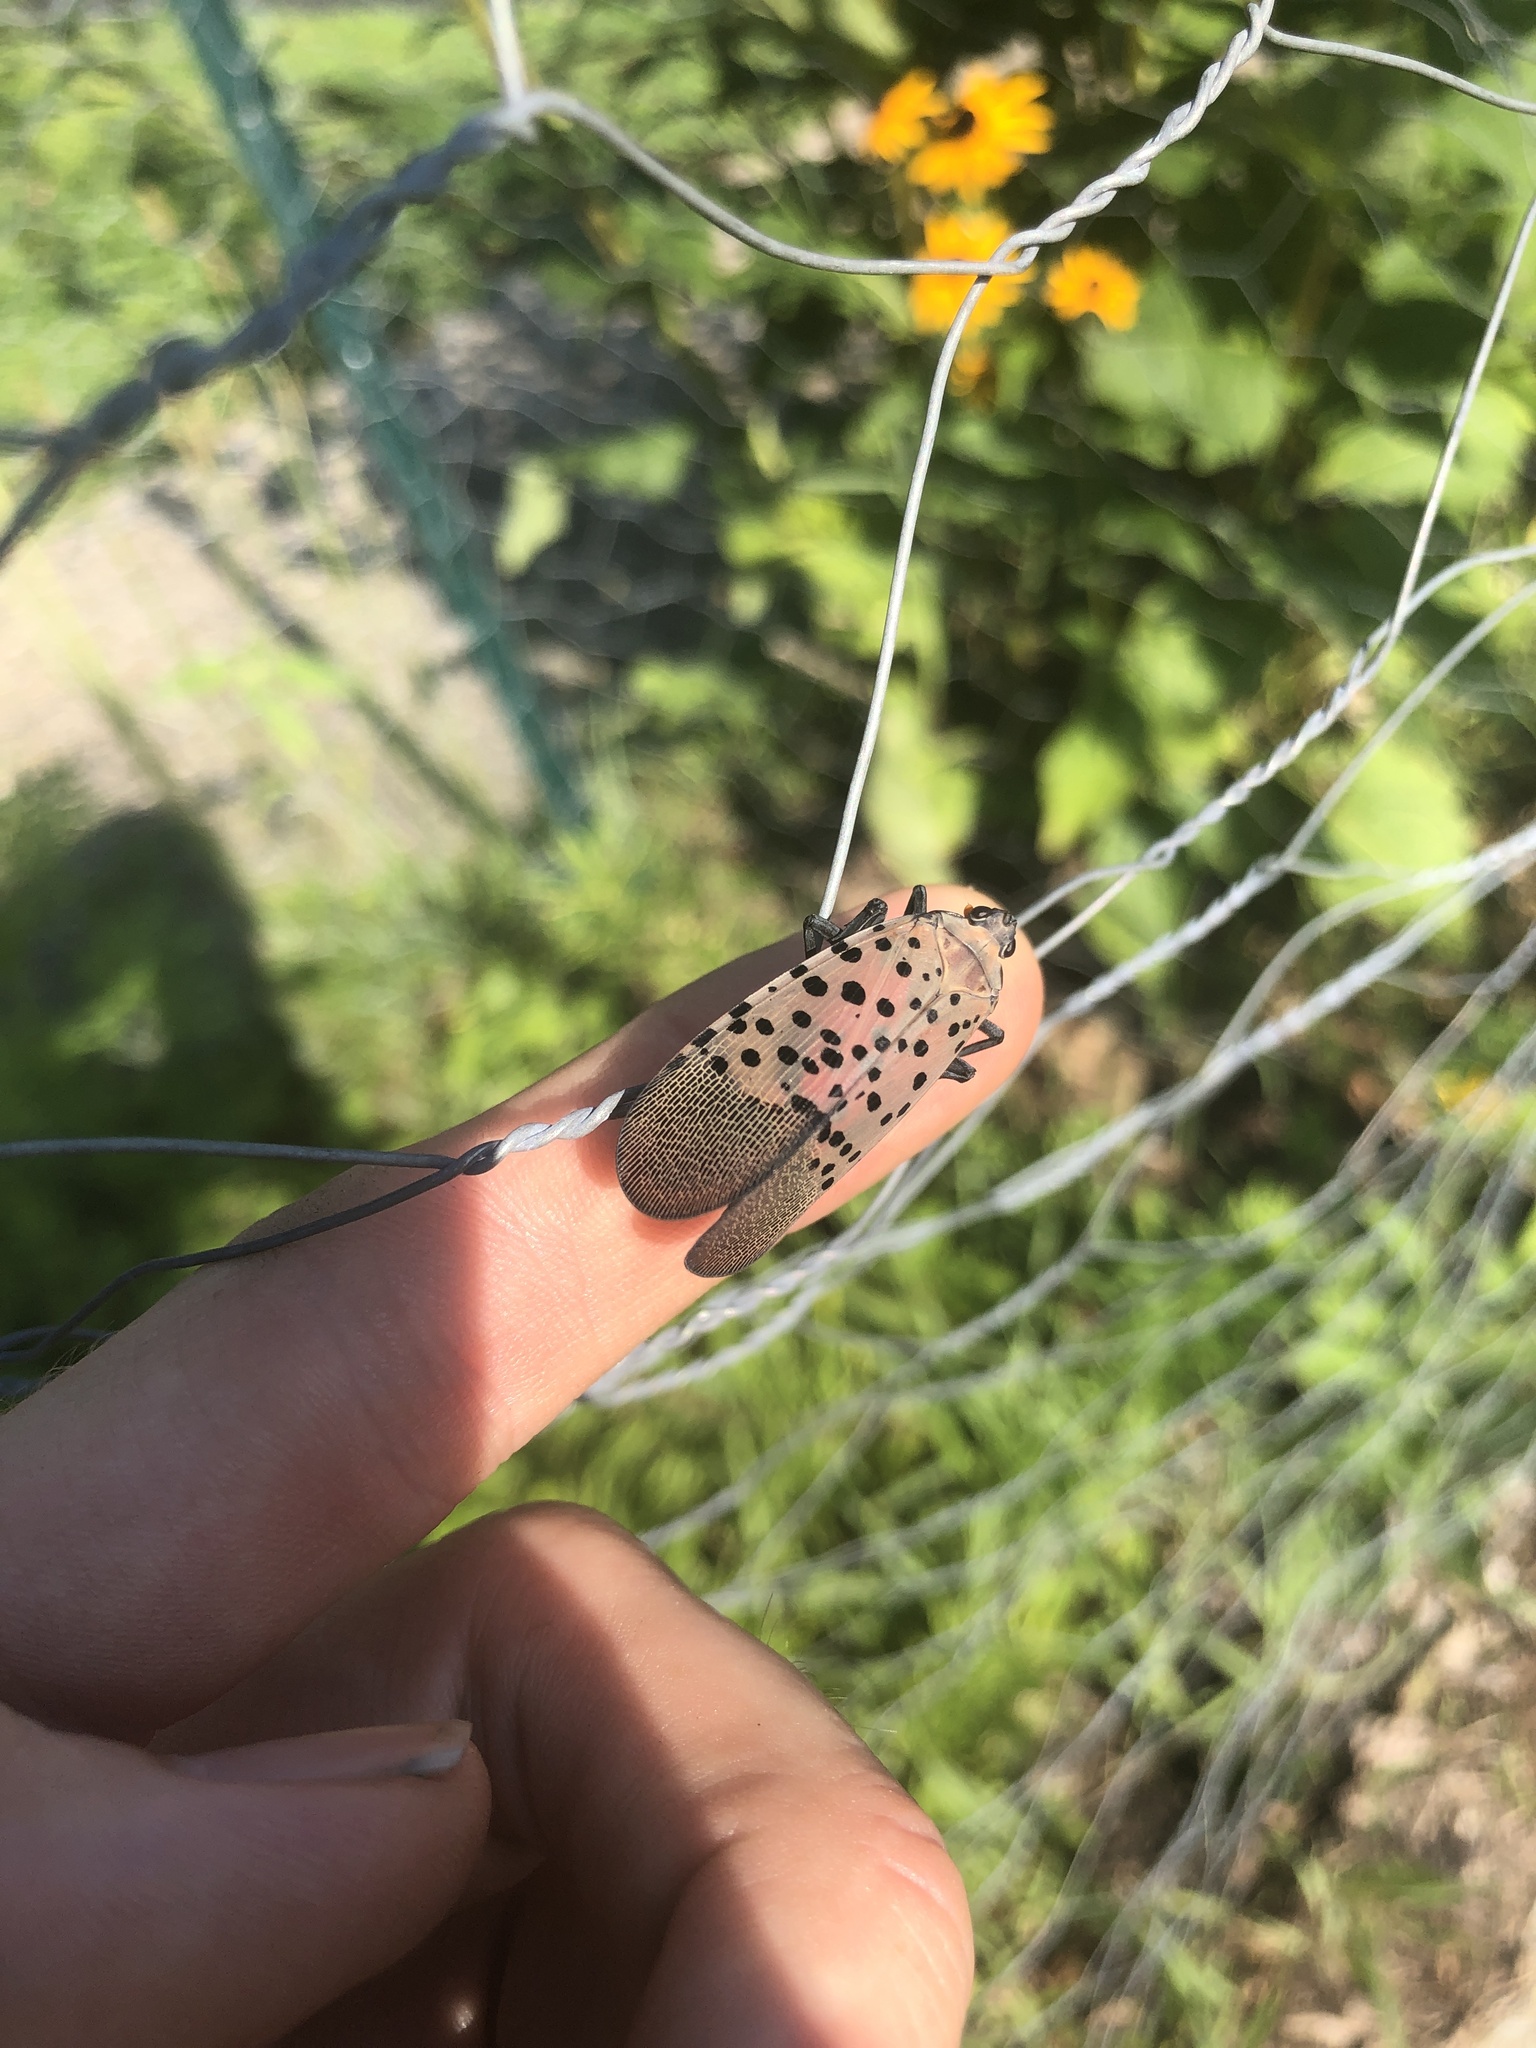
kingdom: Animalia
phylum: Arthropoda
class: Insecta
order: Hemiptera
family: Fulgoridae
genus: Lycorma
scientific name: Lycorma delicatula
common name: Spotted lanternfly
